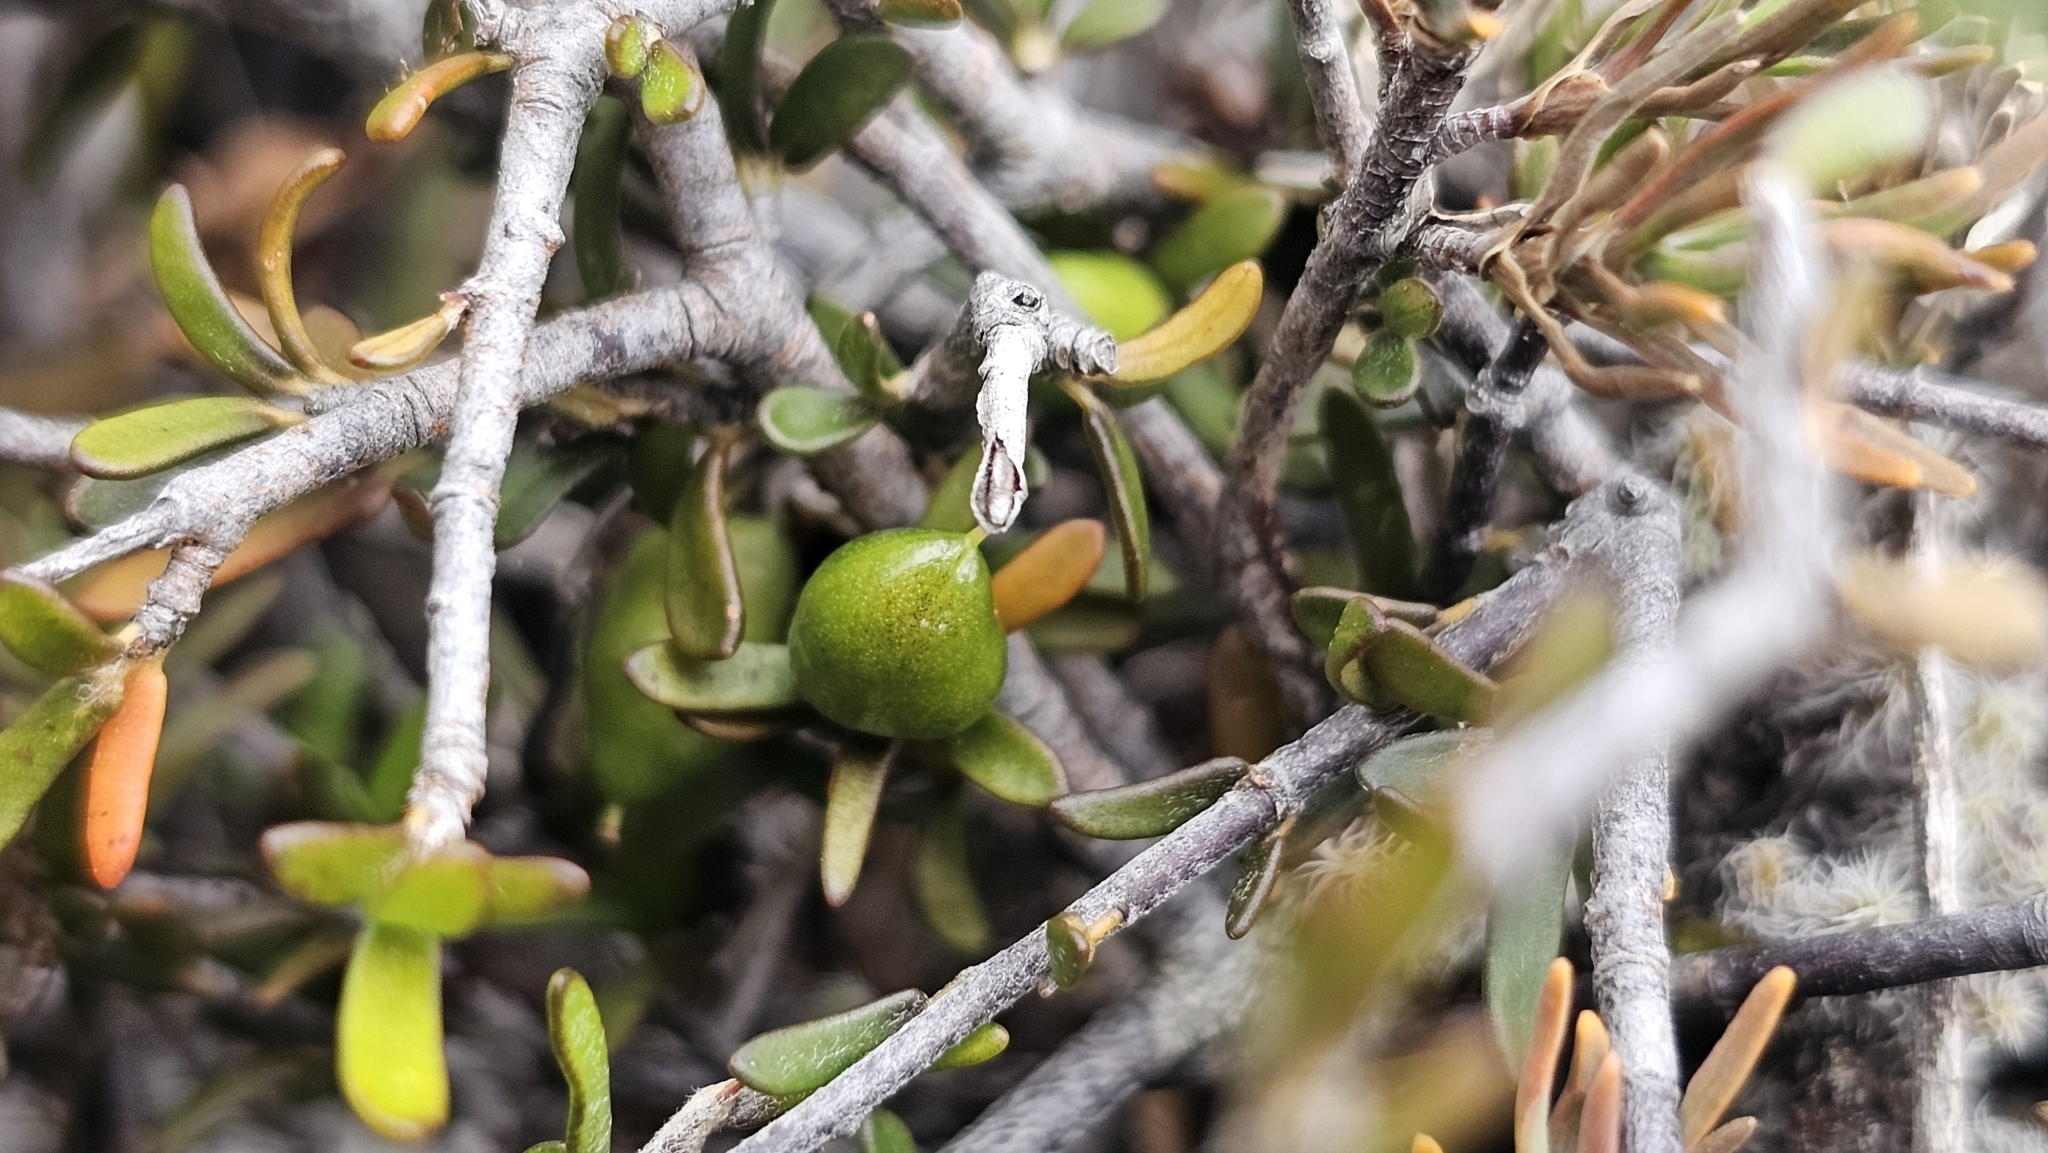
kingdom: Plantae
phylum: Tracheophyta
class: Magnoliopsida
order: Apiales
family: Pittosporaceae
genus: Pittosporum
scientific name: Pittosporum anomalum
